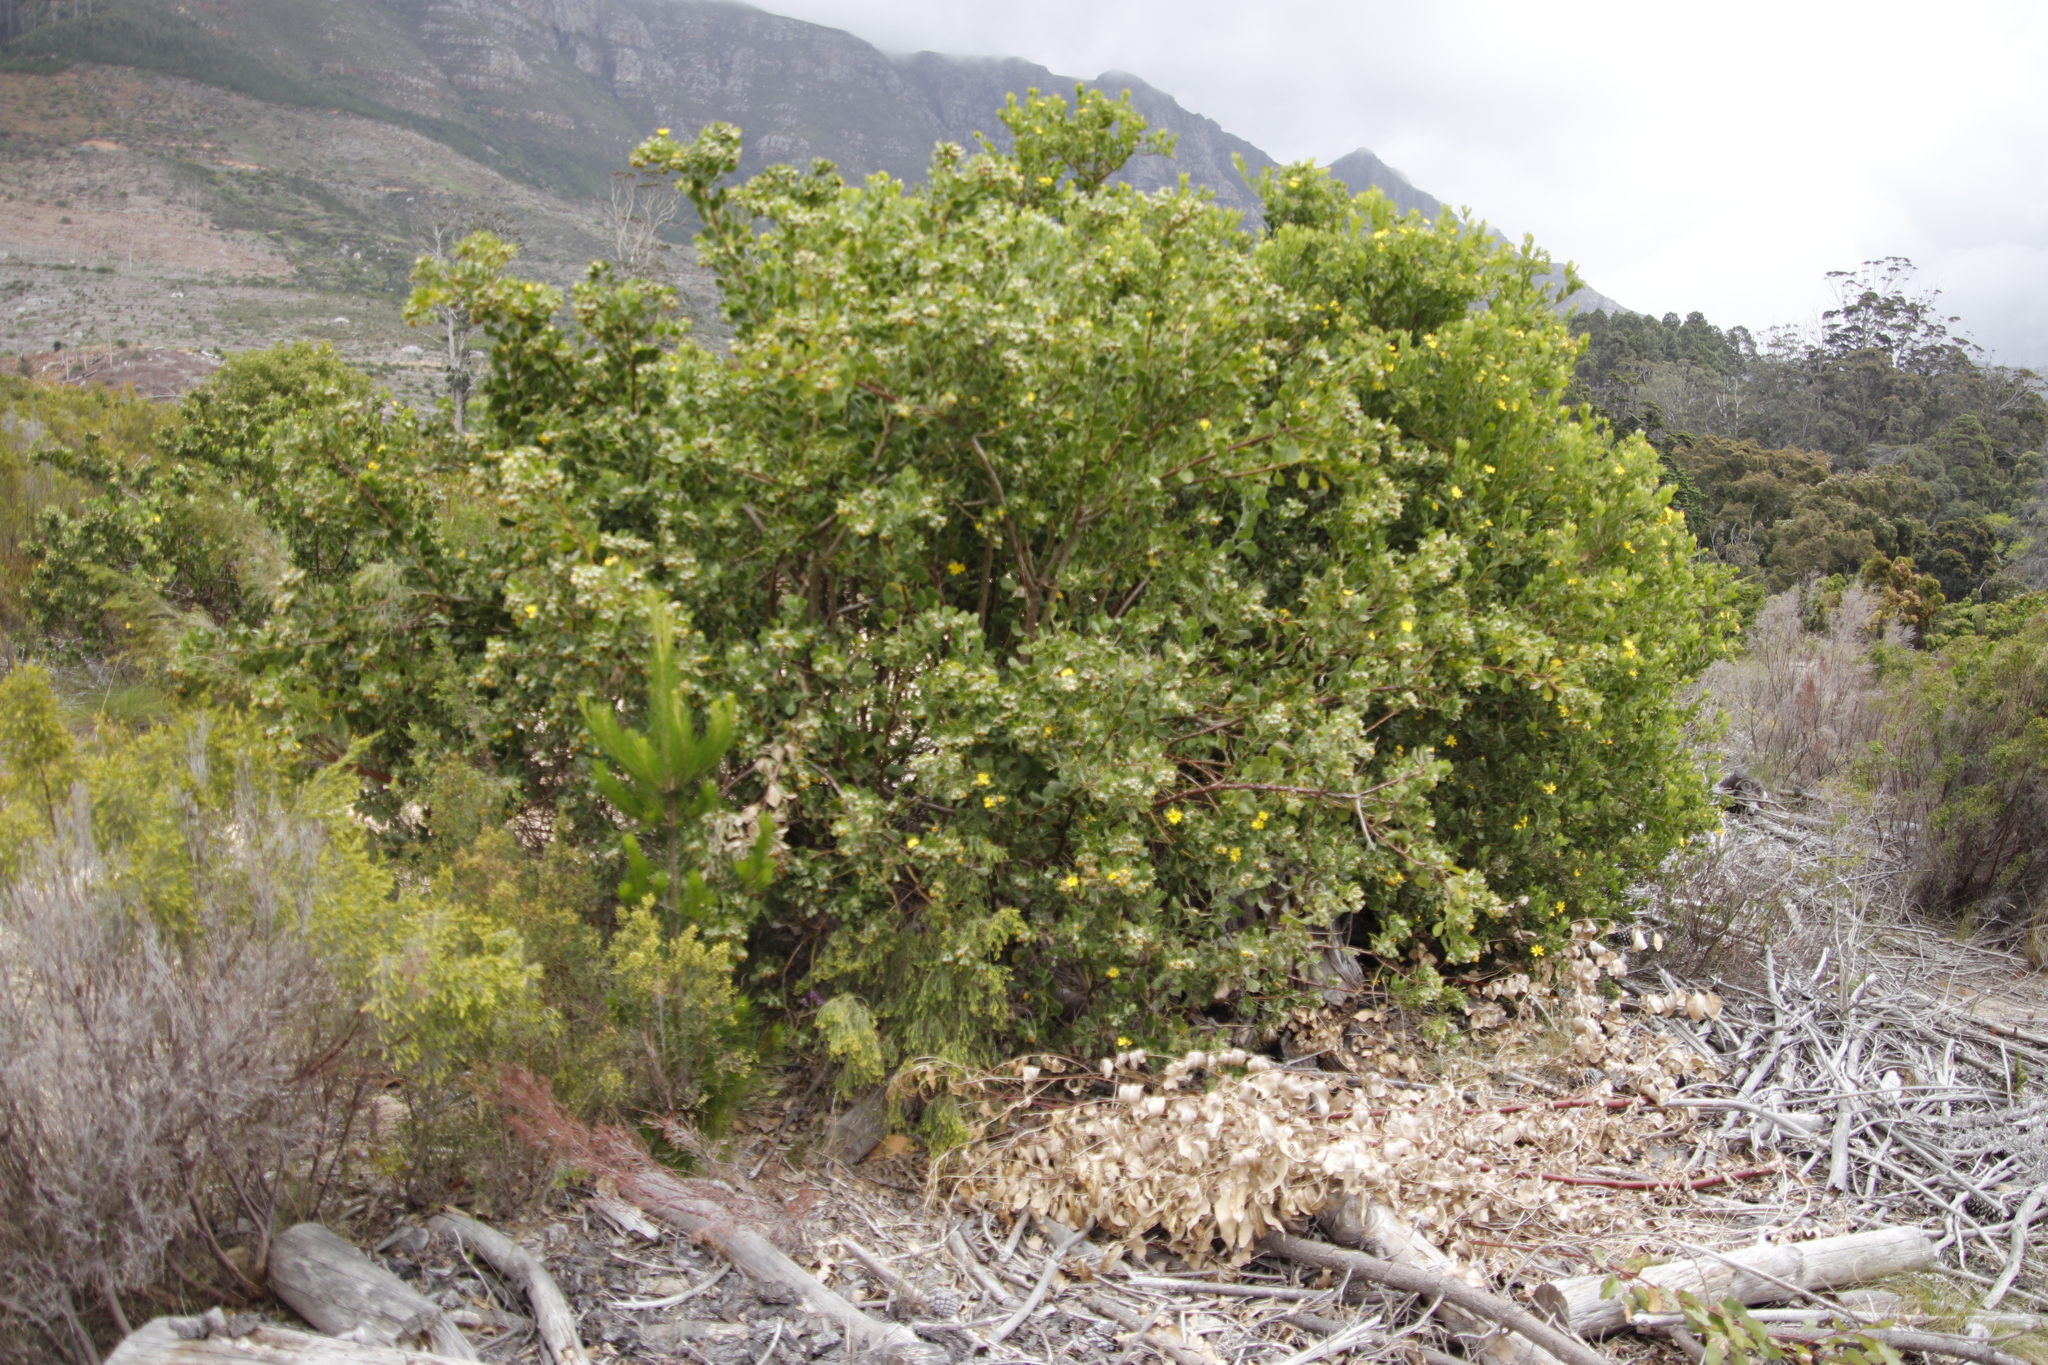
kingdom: Plantae
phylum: Tracheophyta
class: Magnoliopsida
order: Asterales
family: Asteraceae
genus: Osteospermum
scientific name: Osteospermum moniliferum
